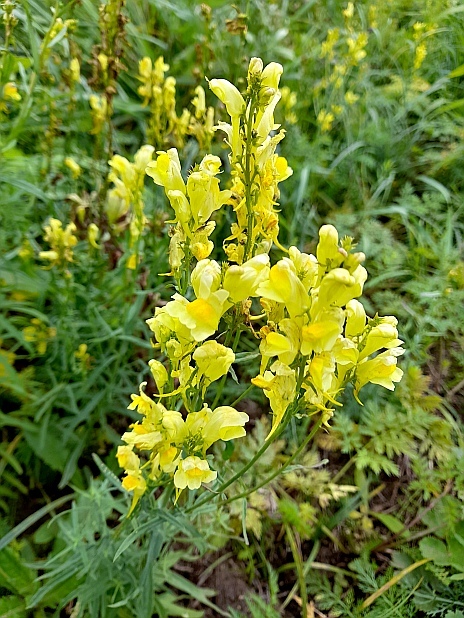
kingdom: Plantae
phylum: Tracheophyta
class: Magnoliopsida
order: Lamiales
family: Plantaginaceae
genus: Linaria
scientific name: Linaria vulgaris
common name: Butter and eggs
